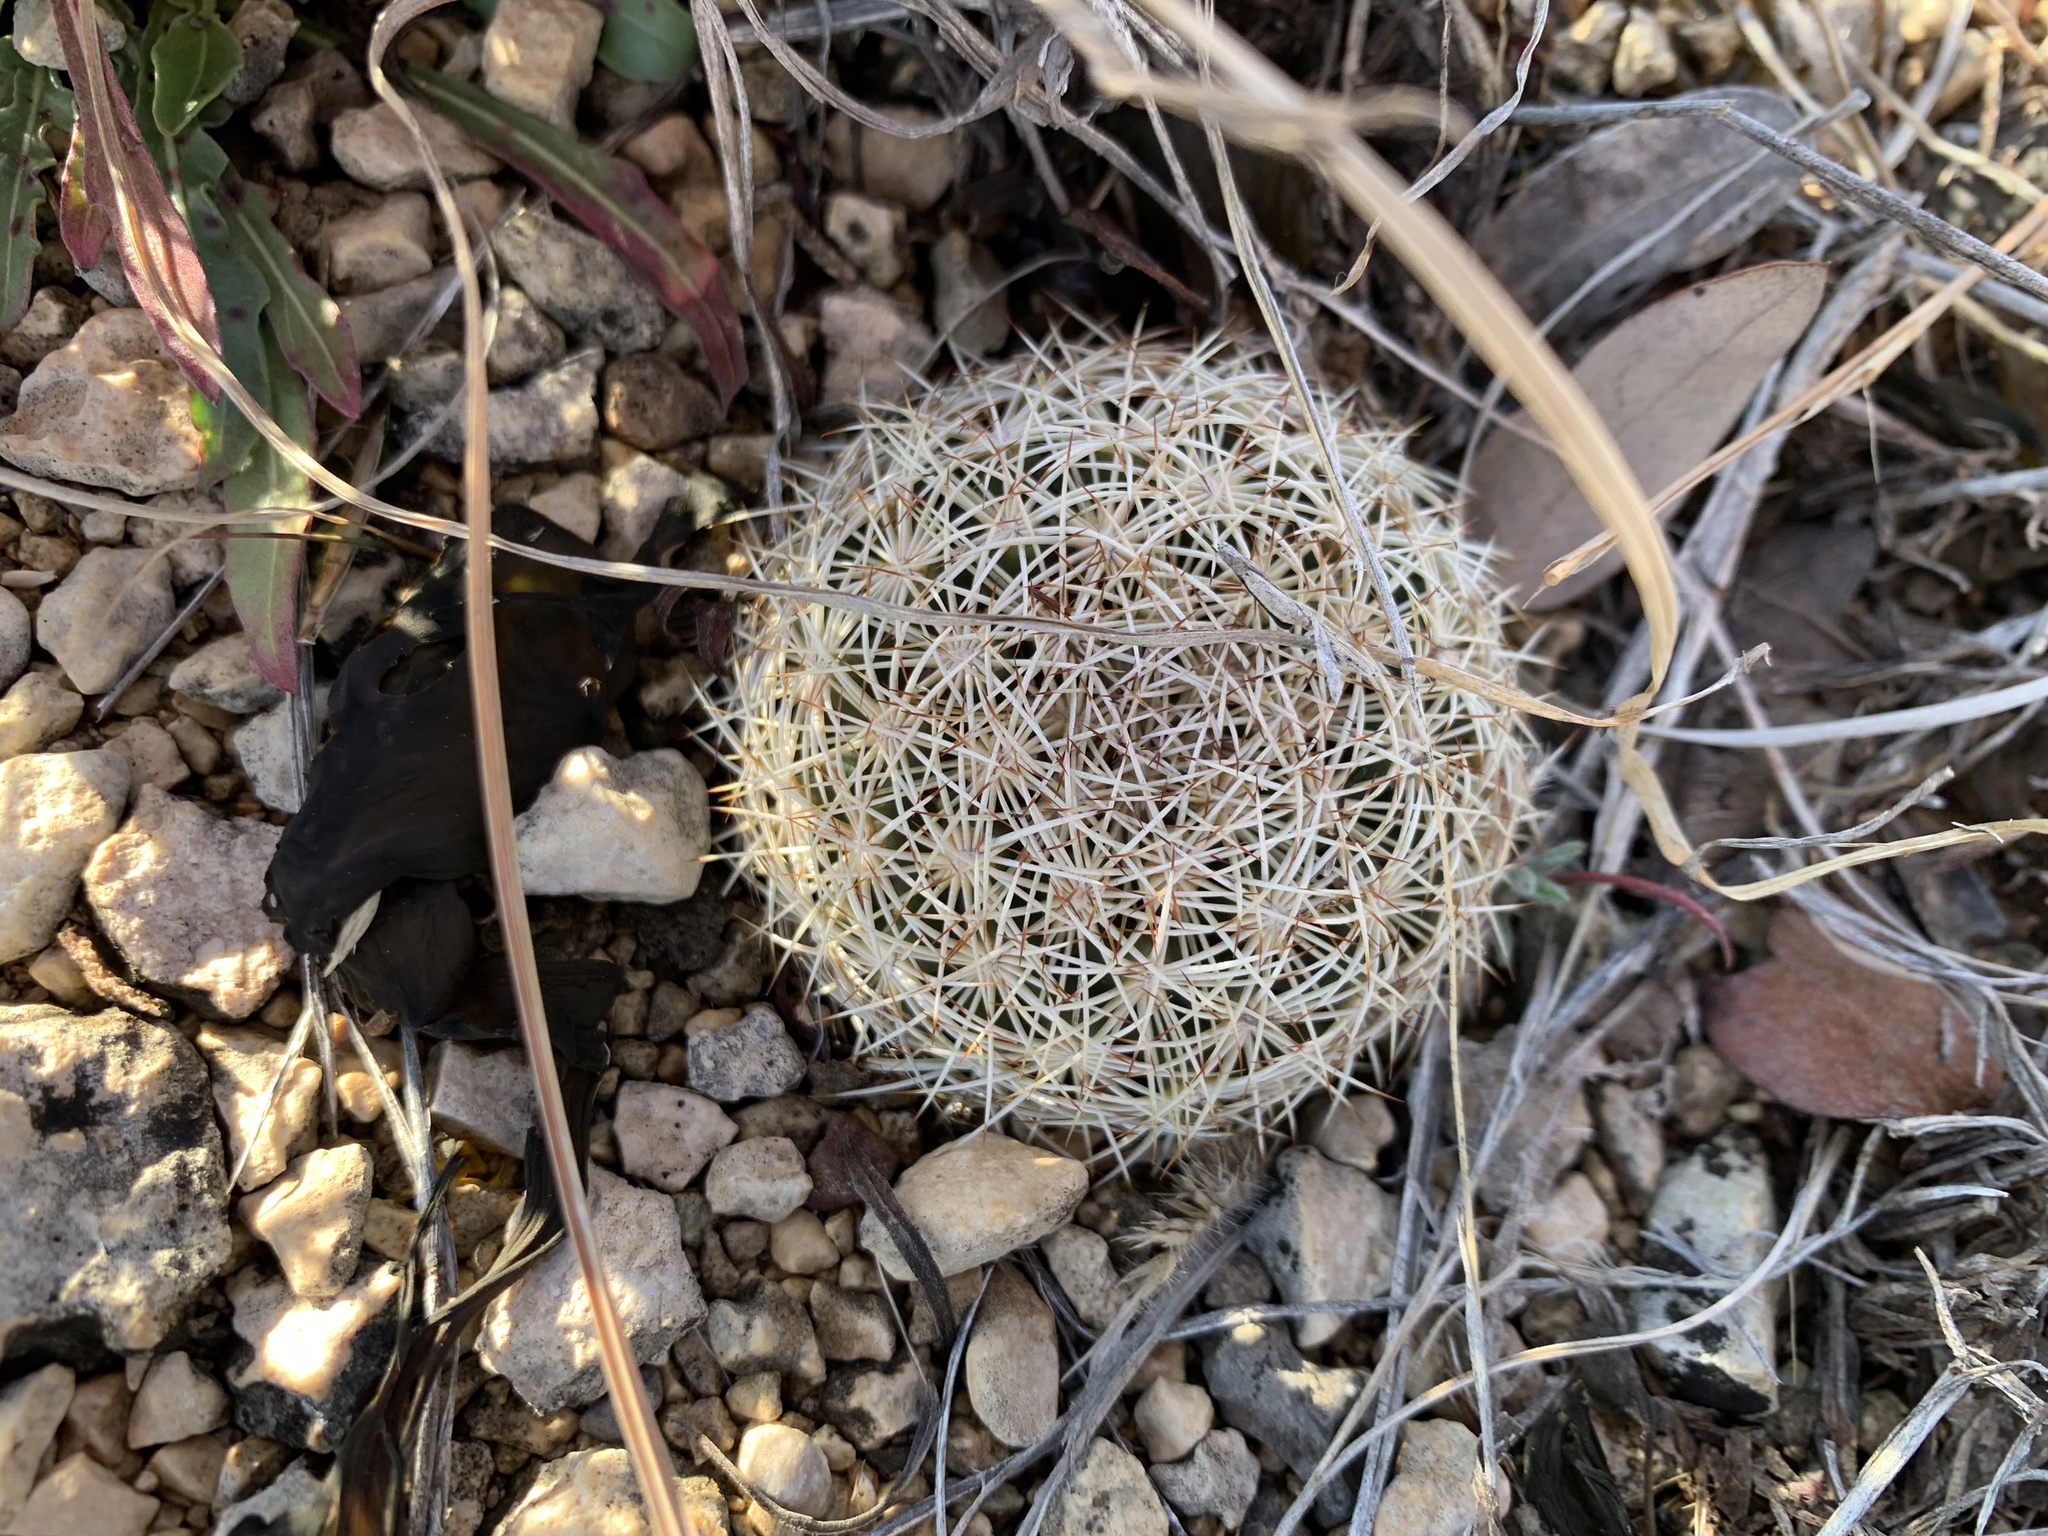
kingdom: Plantae
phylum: Tracheophyta
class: Magnoliopsida
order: Caryophyllales
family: Cactaceae
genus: Coryphantha
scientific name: Coryphantha echinus
